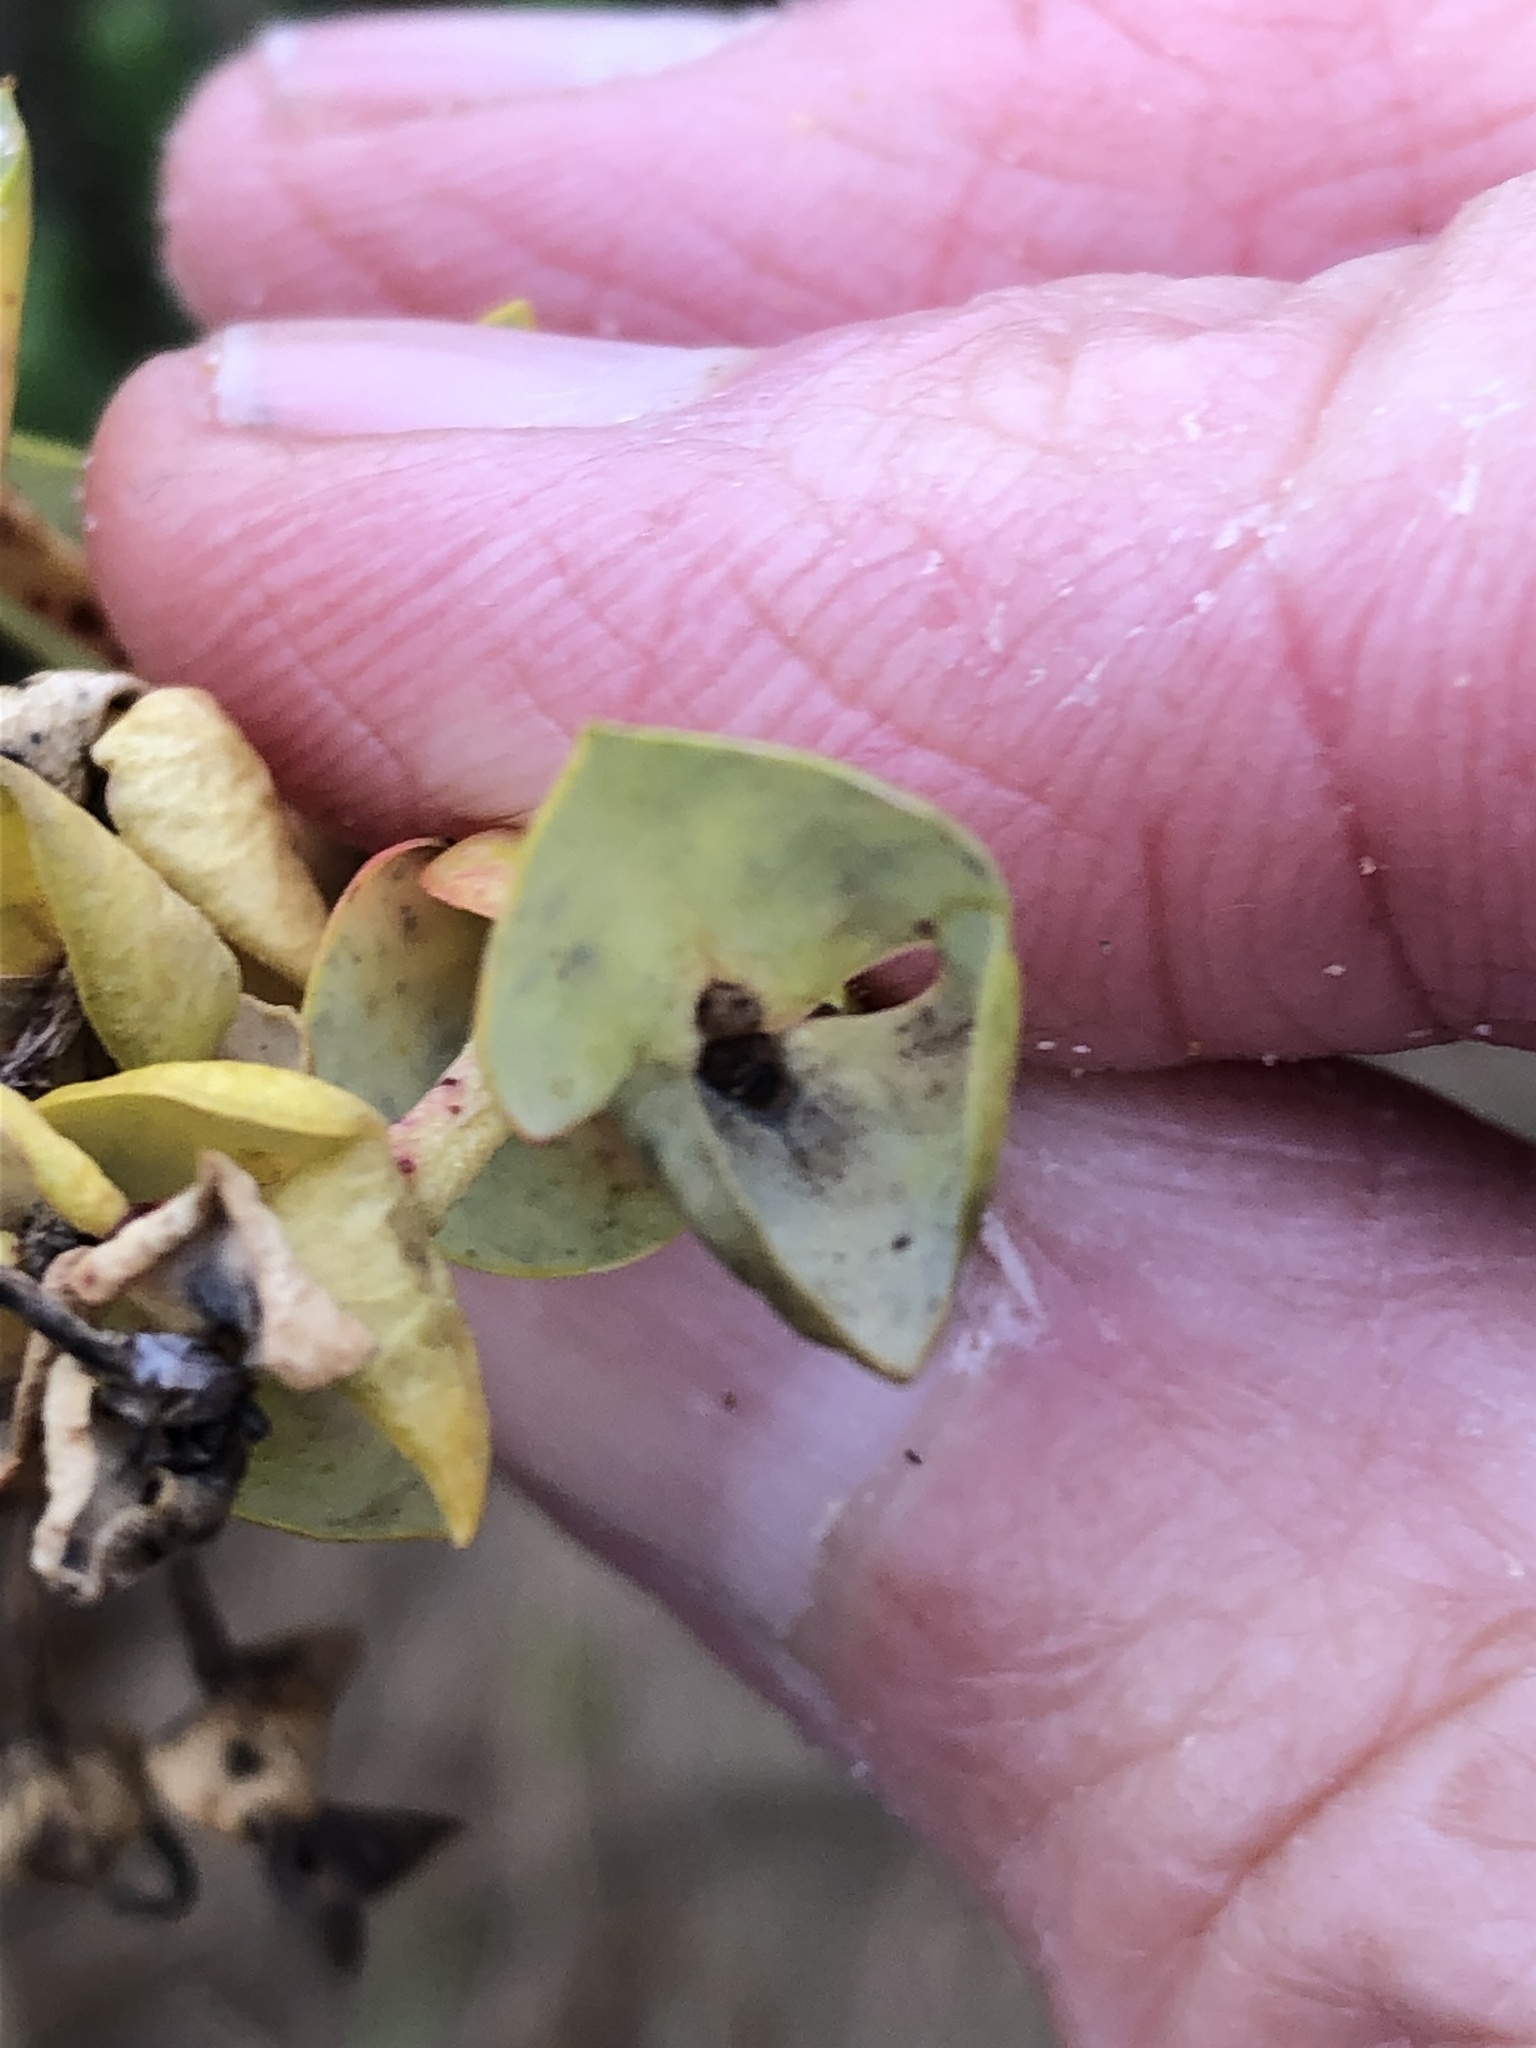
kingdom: Plantae
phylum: Tracheophyta
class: Magnoliopsida
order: Malpighiales
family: Euphorbiaceae
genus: Euphorbia
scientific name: Euphorbia paralias
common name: Sea spurge
